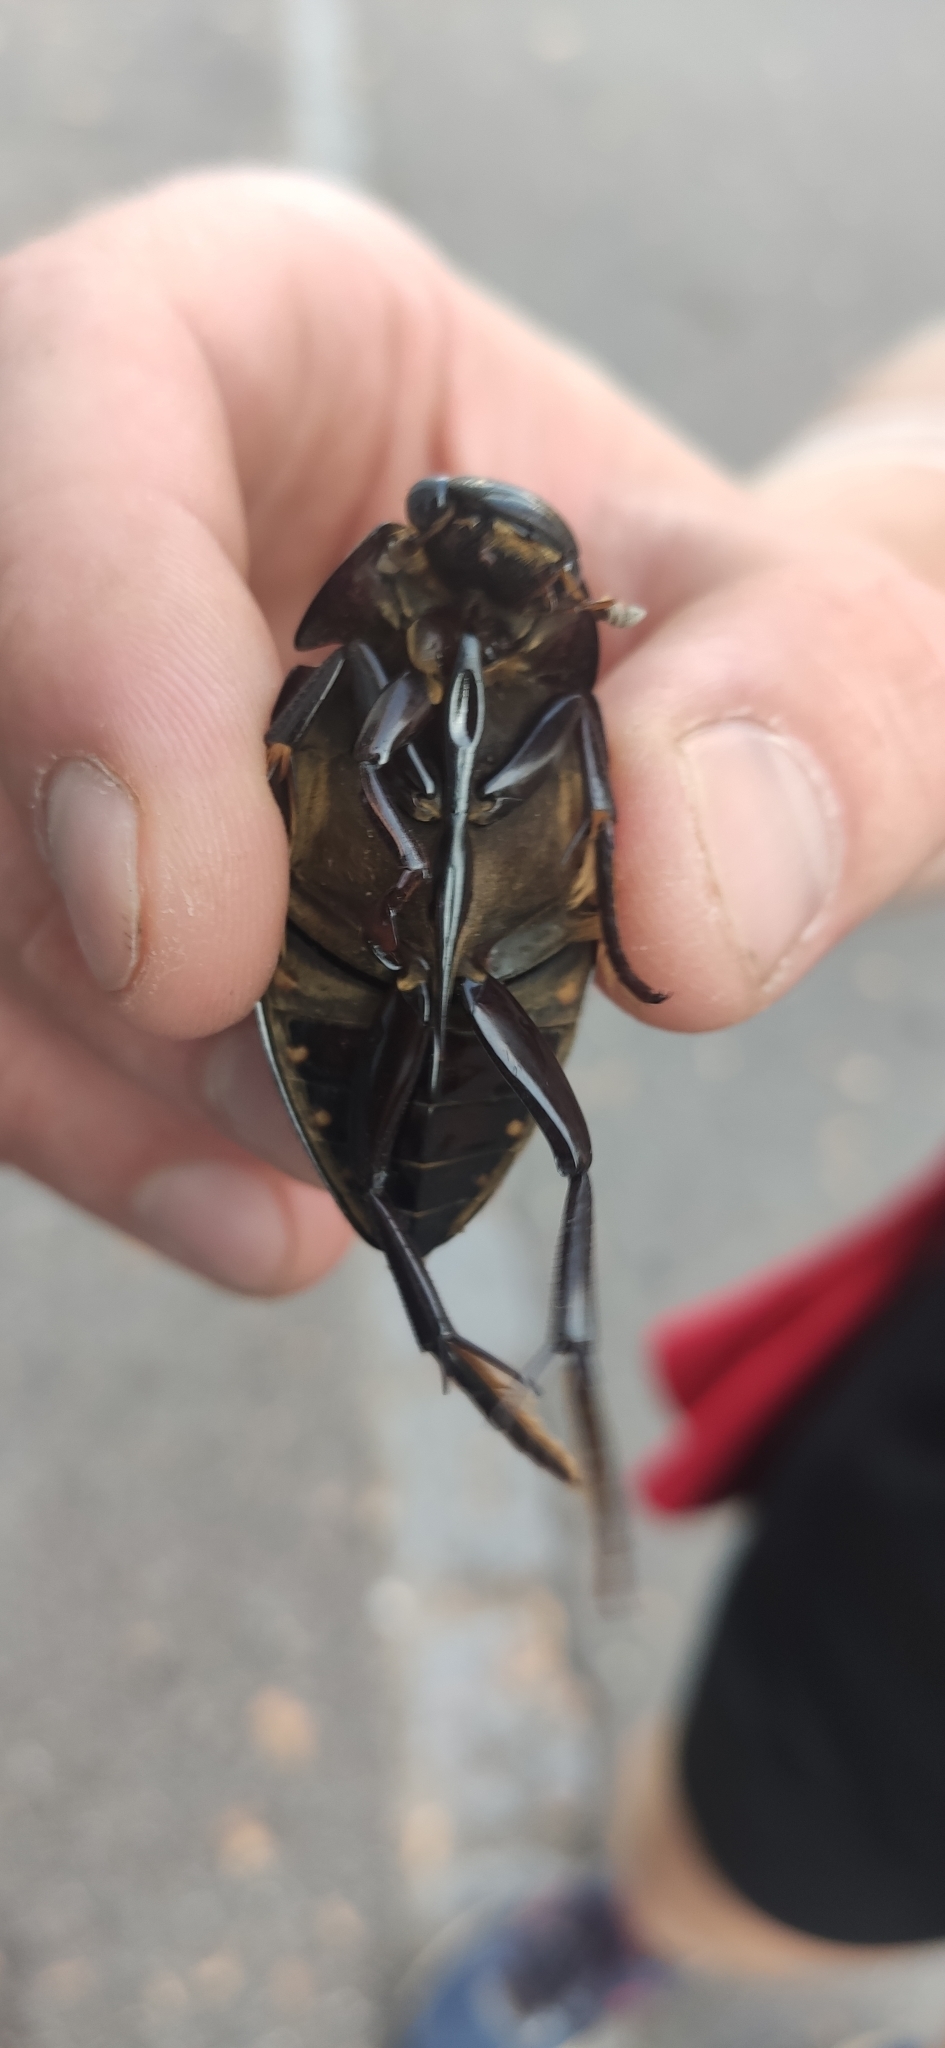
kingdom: Animalia
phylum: Arthropoda
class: Insecta
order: Coleoptera
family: Hydrophilidae
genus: Hydrophilus
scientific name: Hydrophilus piceus
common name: Great silver water beetle
